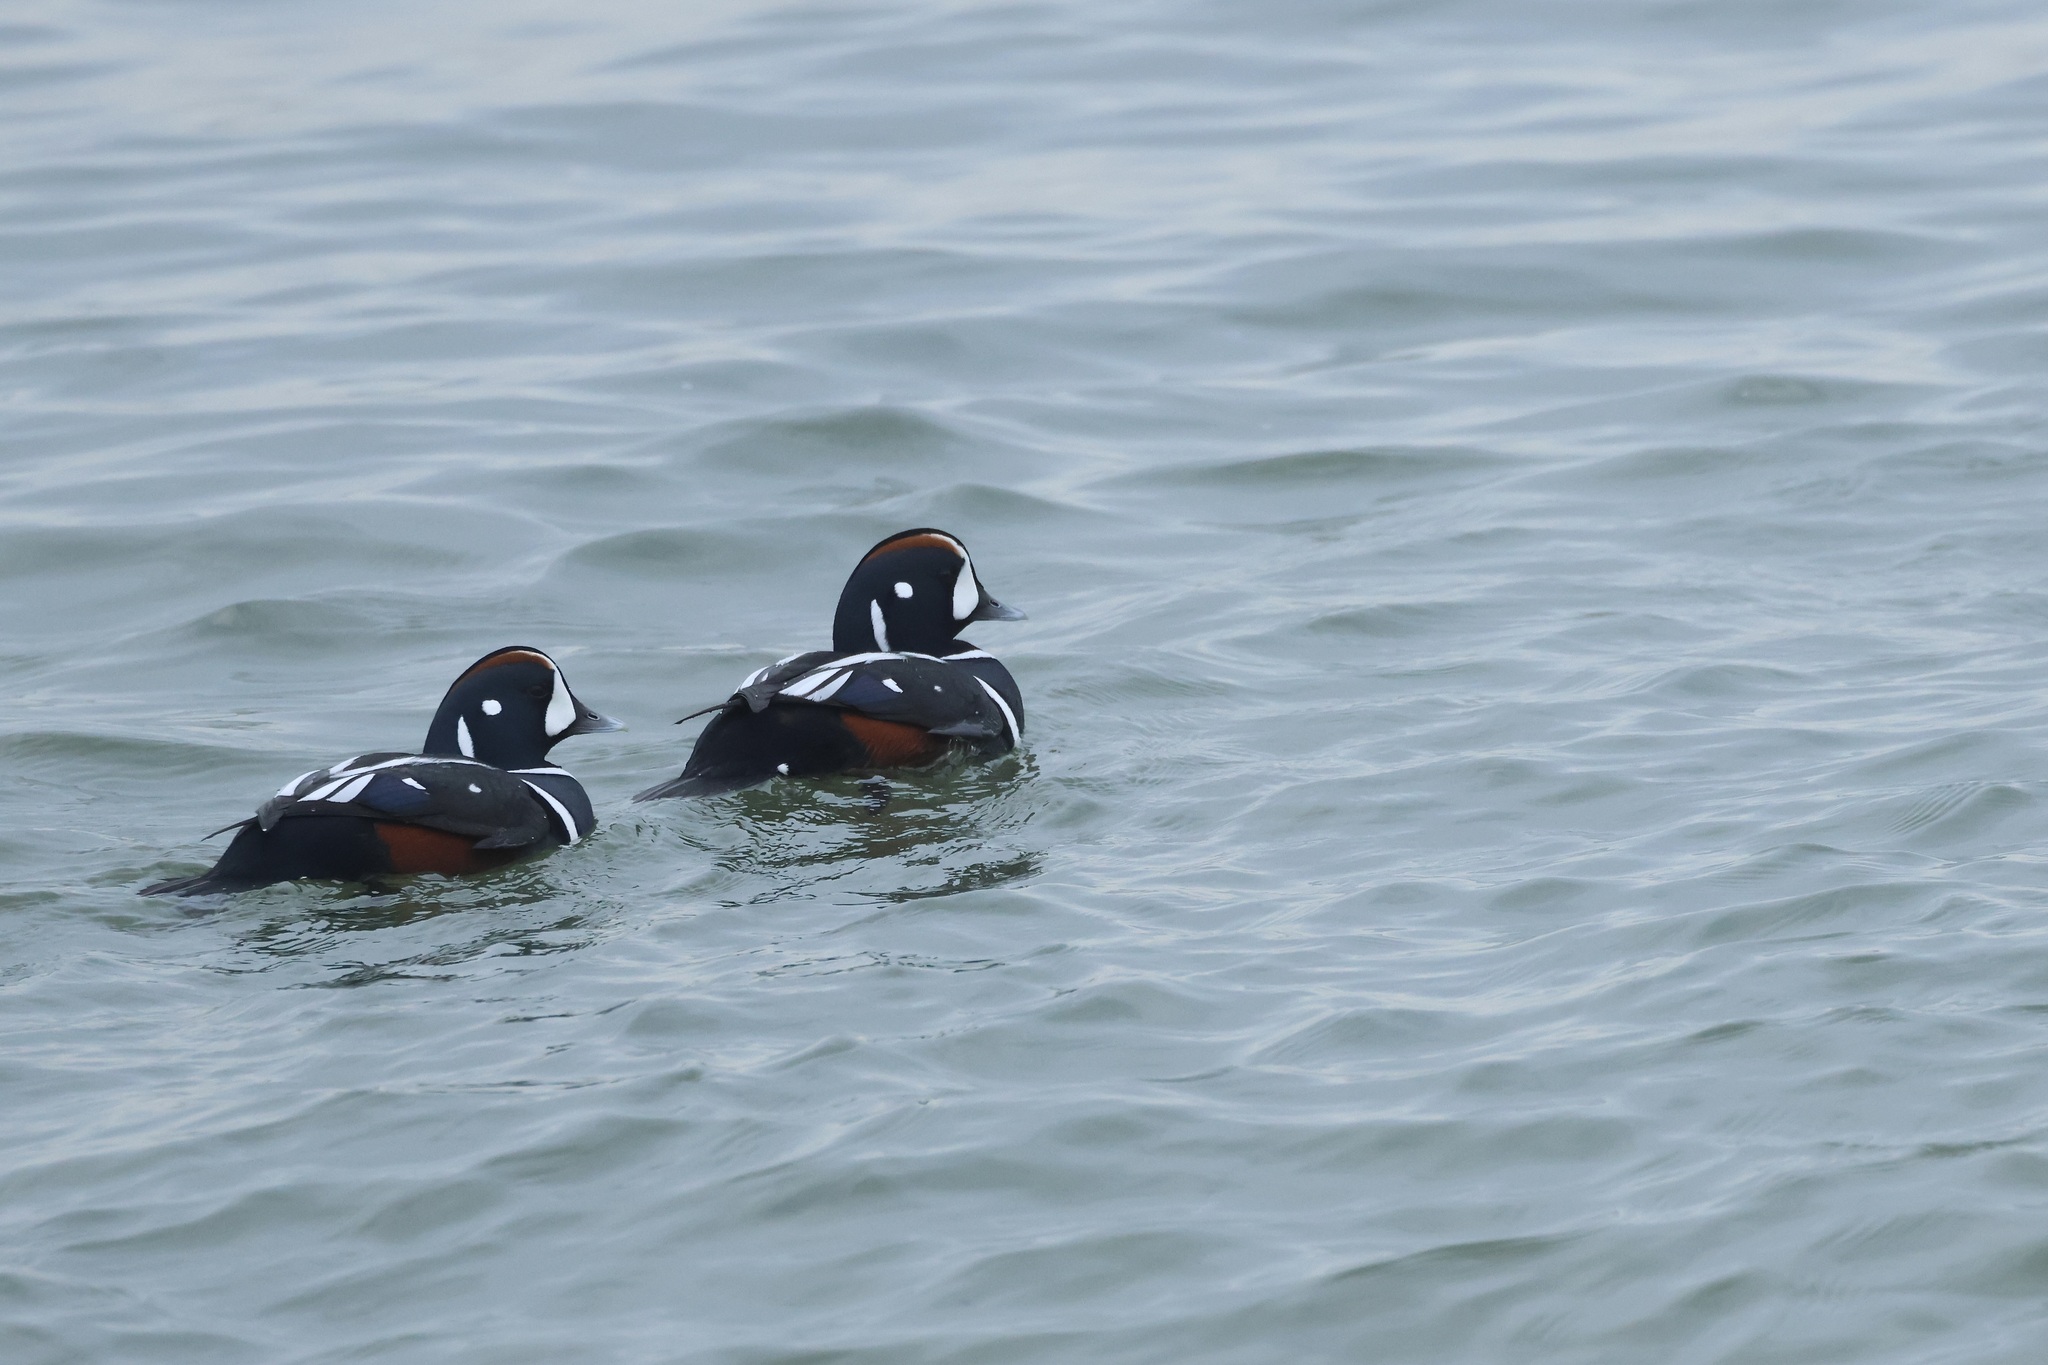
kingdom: Animalia
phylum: Chordata
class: Aves
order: Anseriformes
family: Anatidae
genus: Histrionicus
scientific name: Histrionicus histrionicus
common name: Harlequin duck
